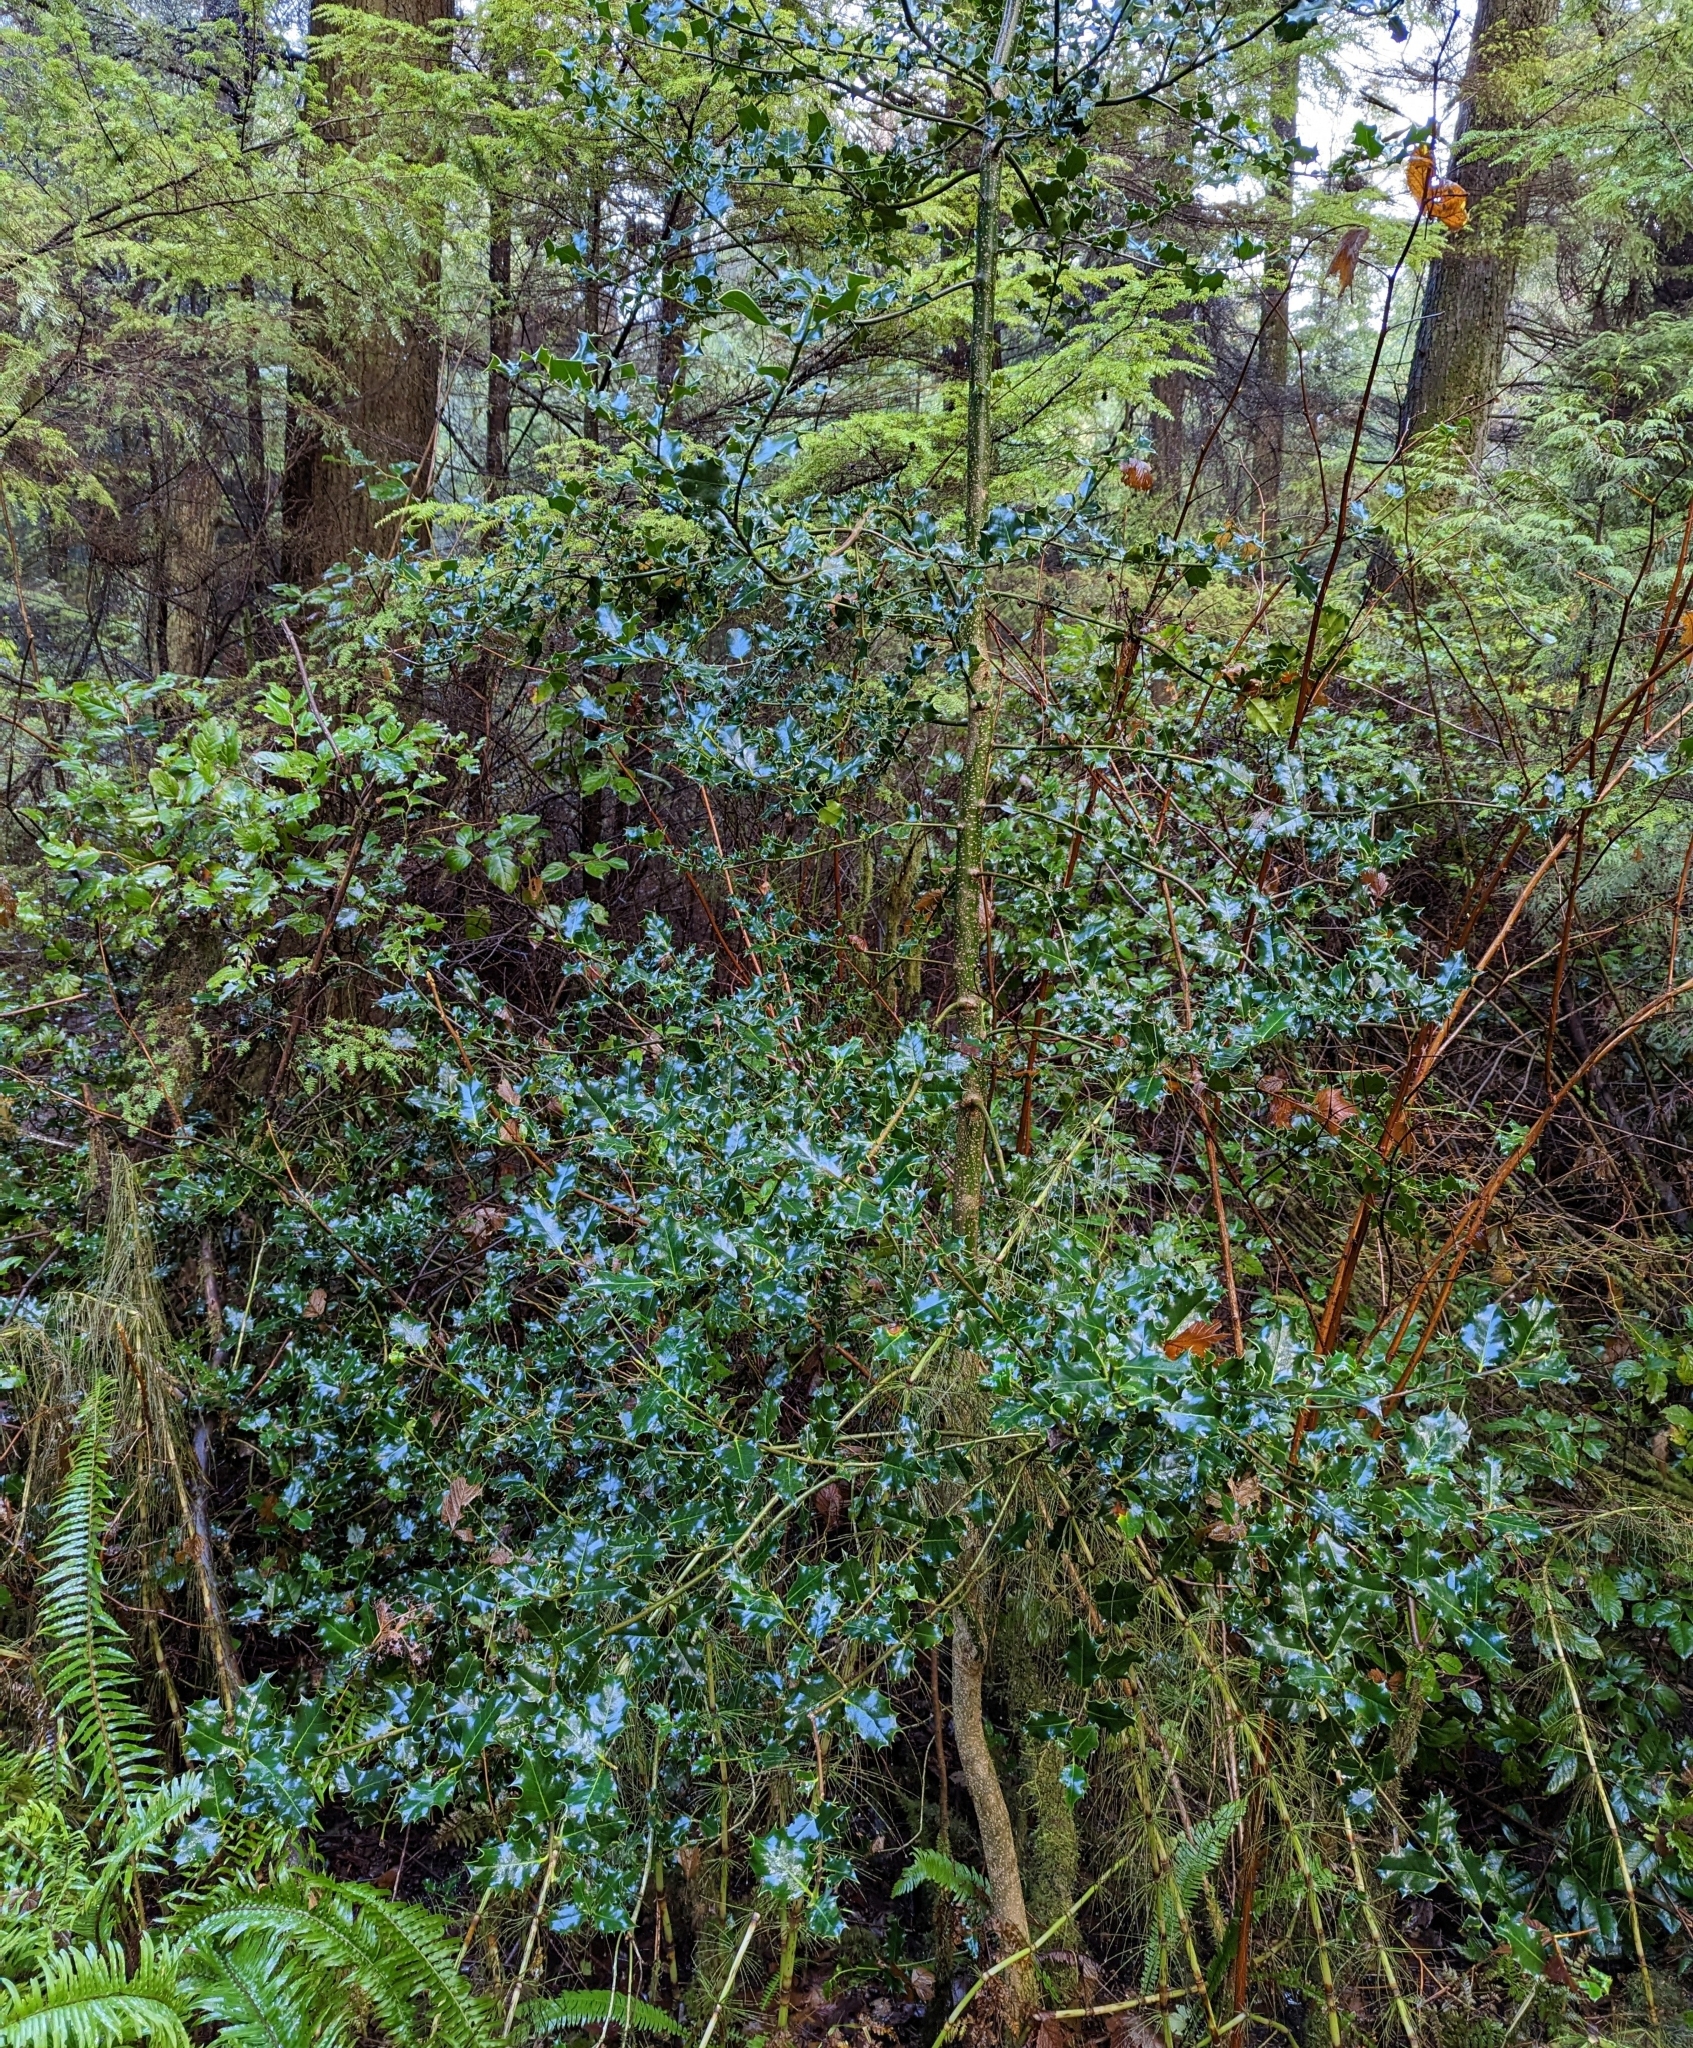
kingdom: Plantae
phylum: Tracheophyta
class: Magnoliopsida
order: Aquifoliales
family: Aquifoliaceae
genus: Ilex
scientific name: Ilex aquifolium
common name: English holly
